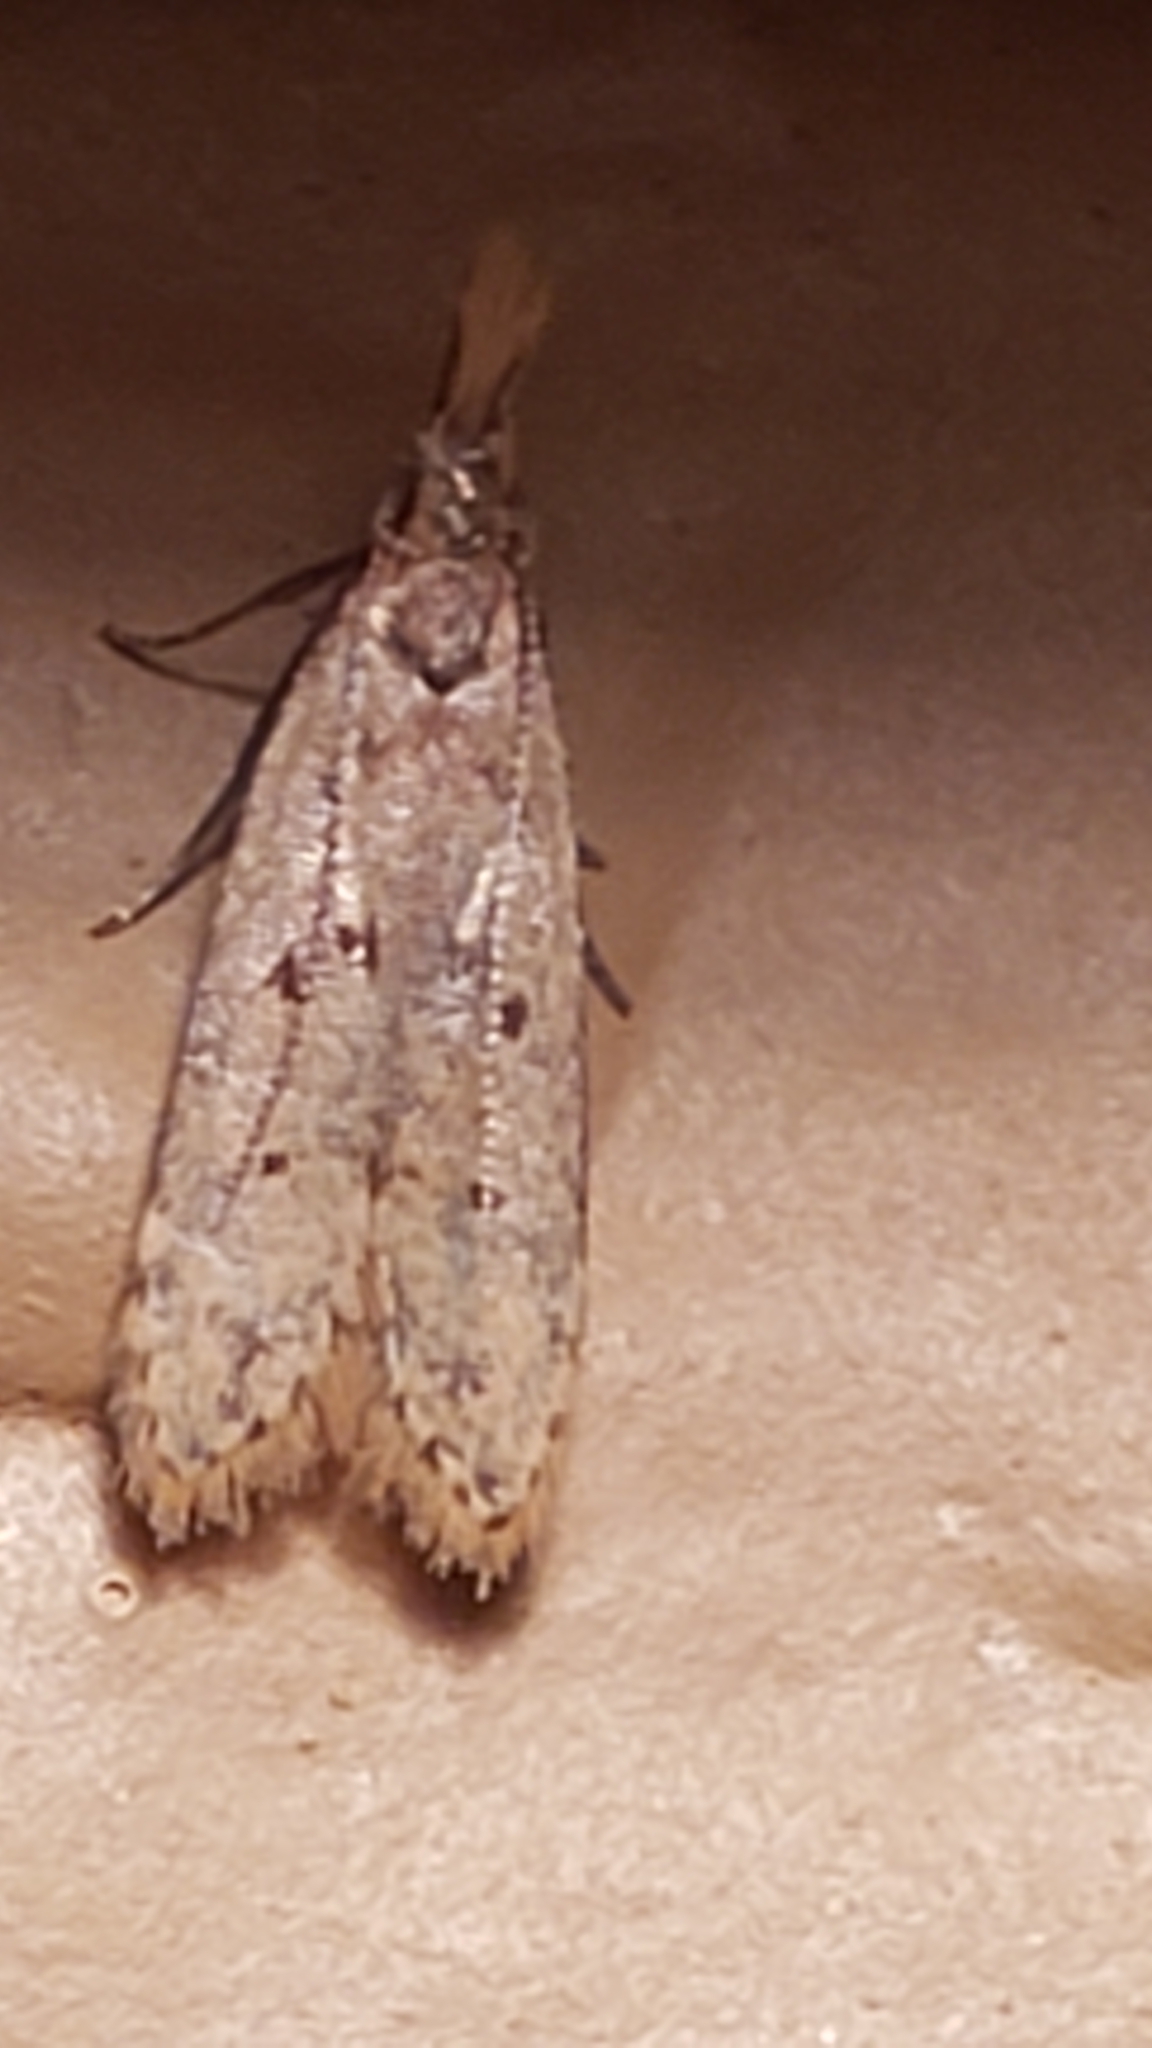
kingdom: Animalia
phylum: Arthropoda
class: Insecta
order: Lepidoptera
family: Gelechiidae
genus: Dichomeris
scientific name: Dichomeris punctipennella
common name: Many-spotted dichomeris moth
